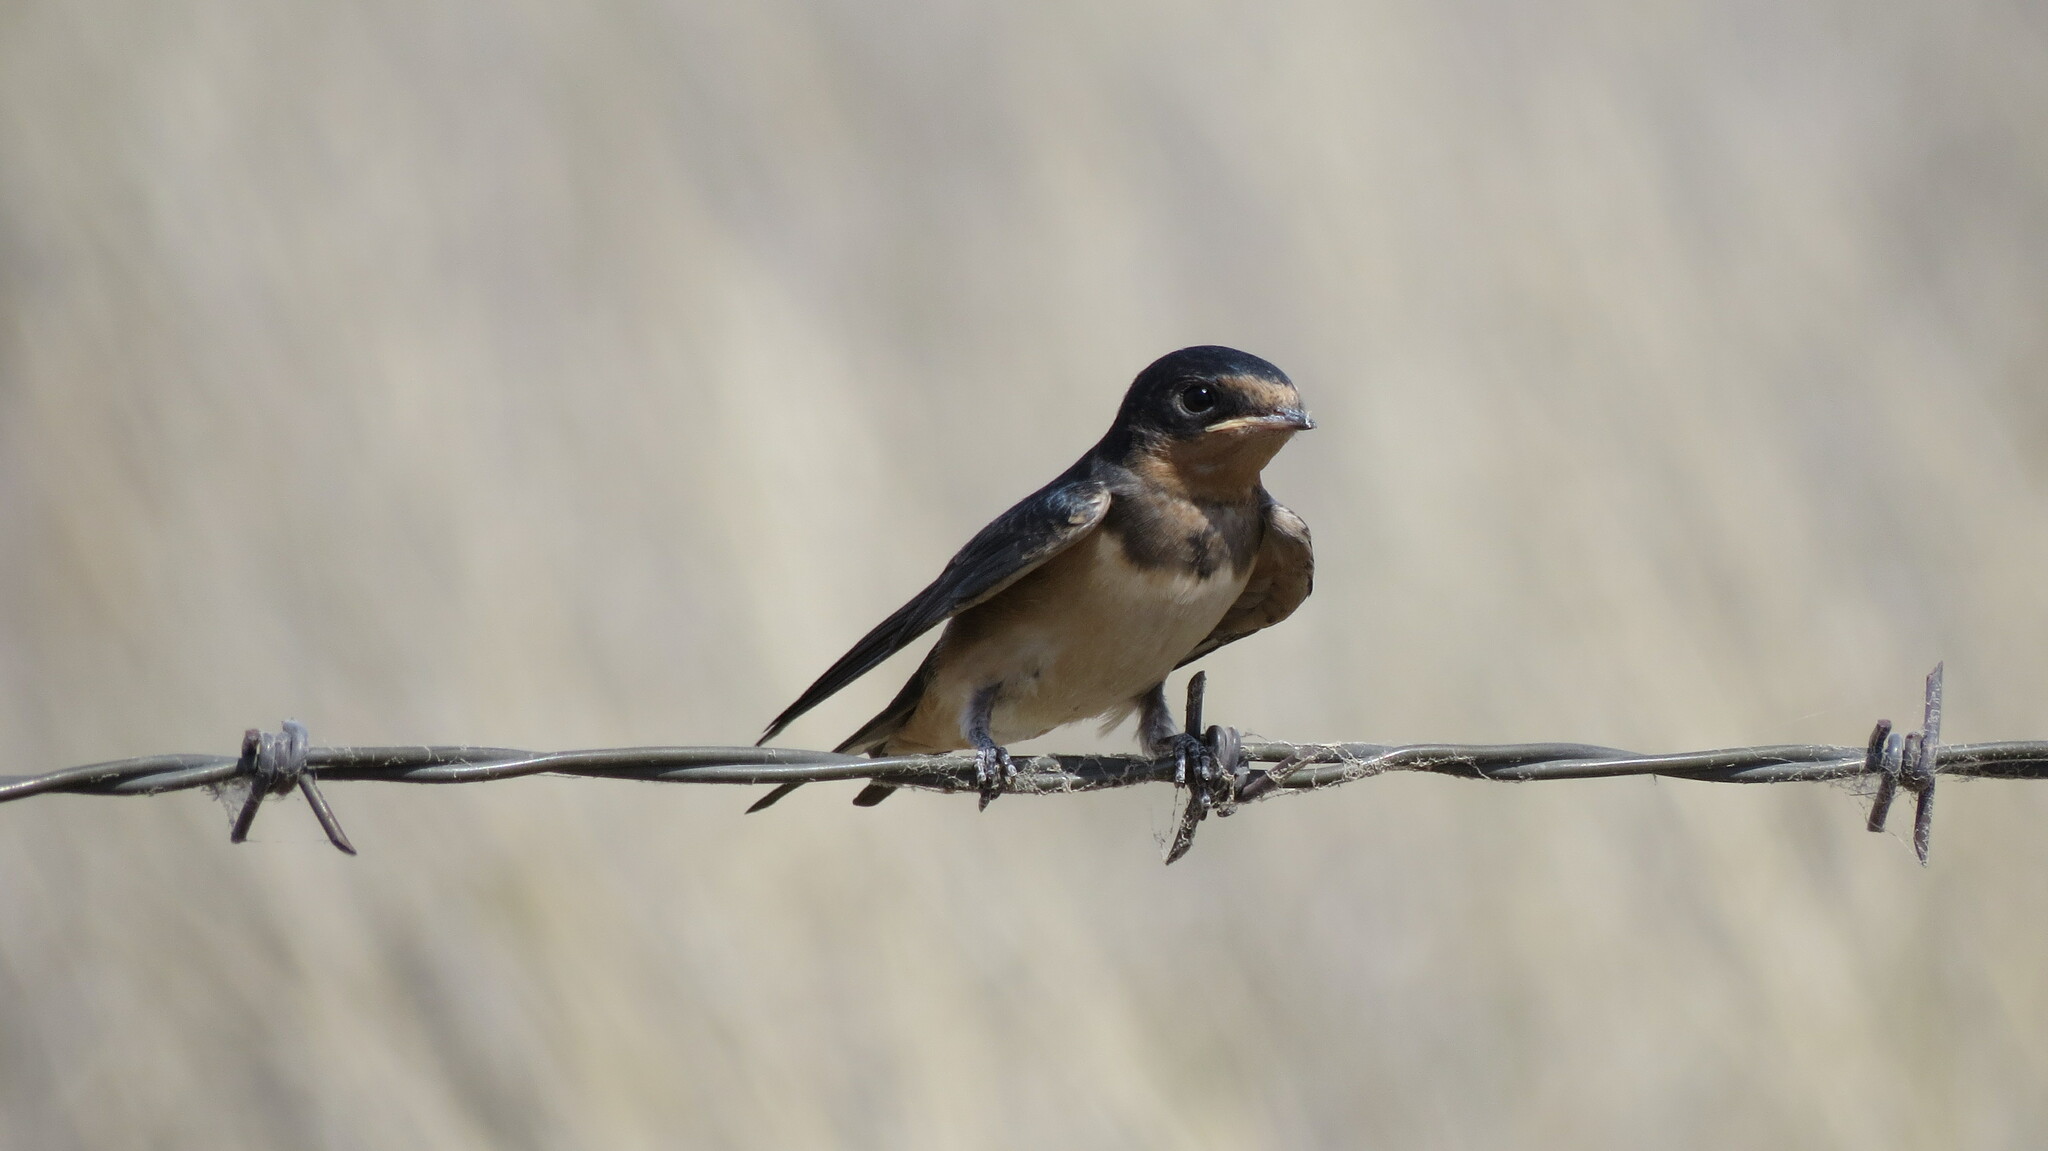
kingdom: Animalia
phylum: Chordata
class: Aves
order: Passeriformes
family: Hirundinidae
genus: Hirundo
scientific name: Hirundo rustica
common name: Barn swallow
